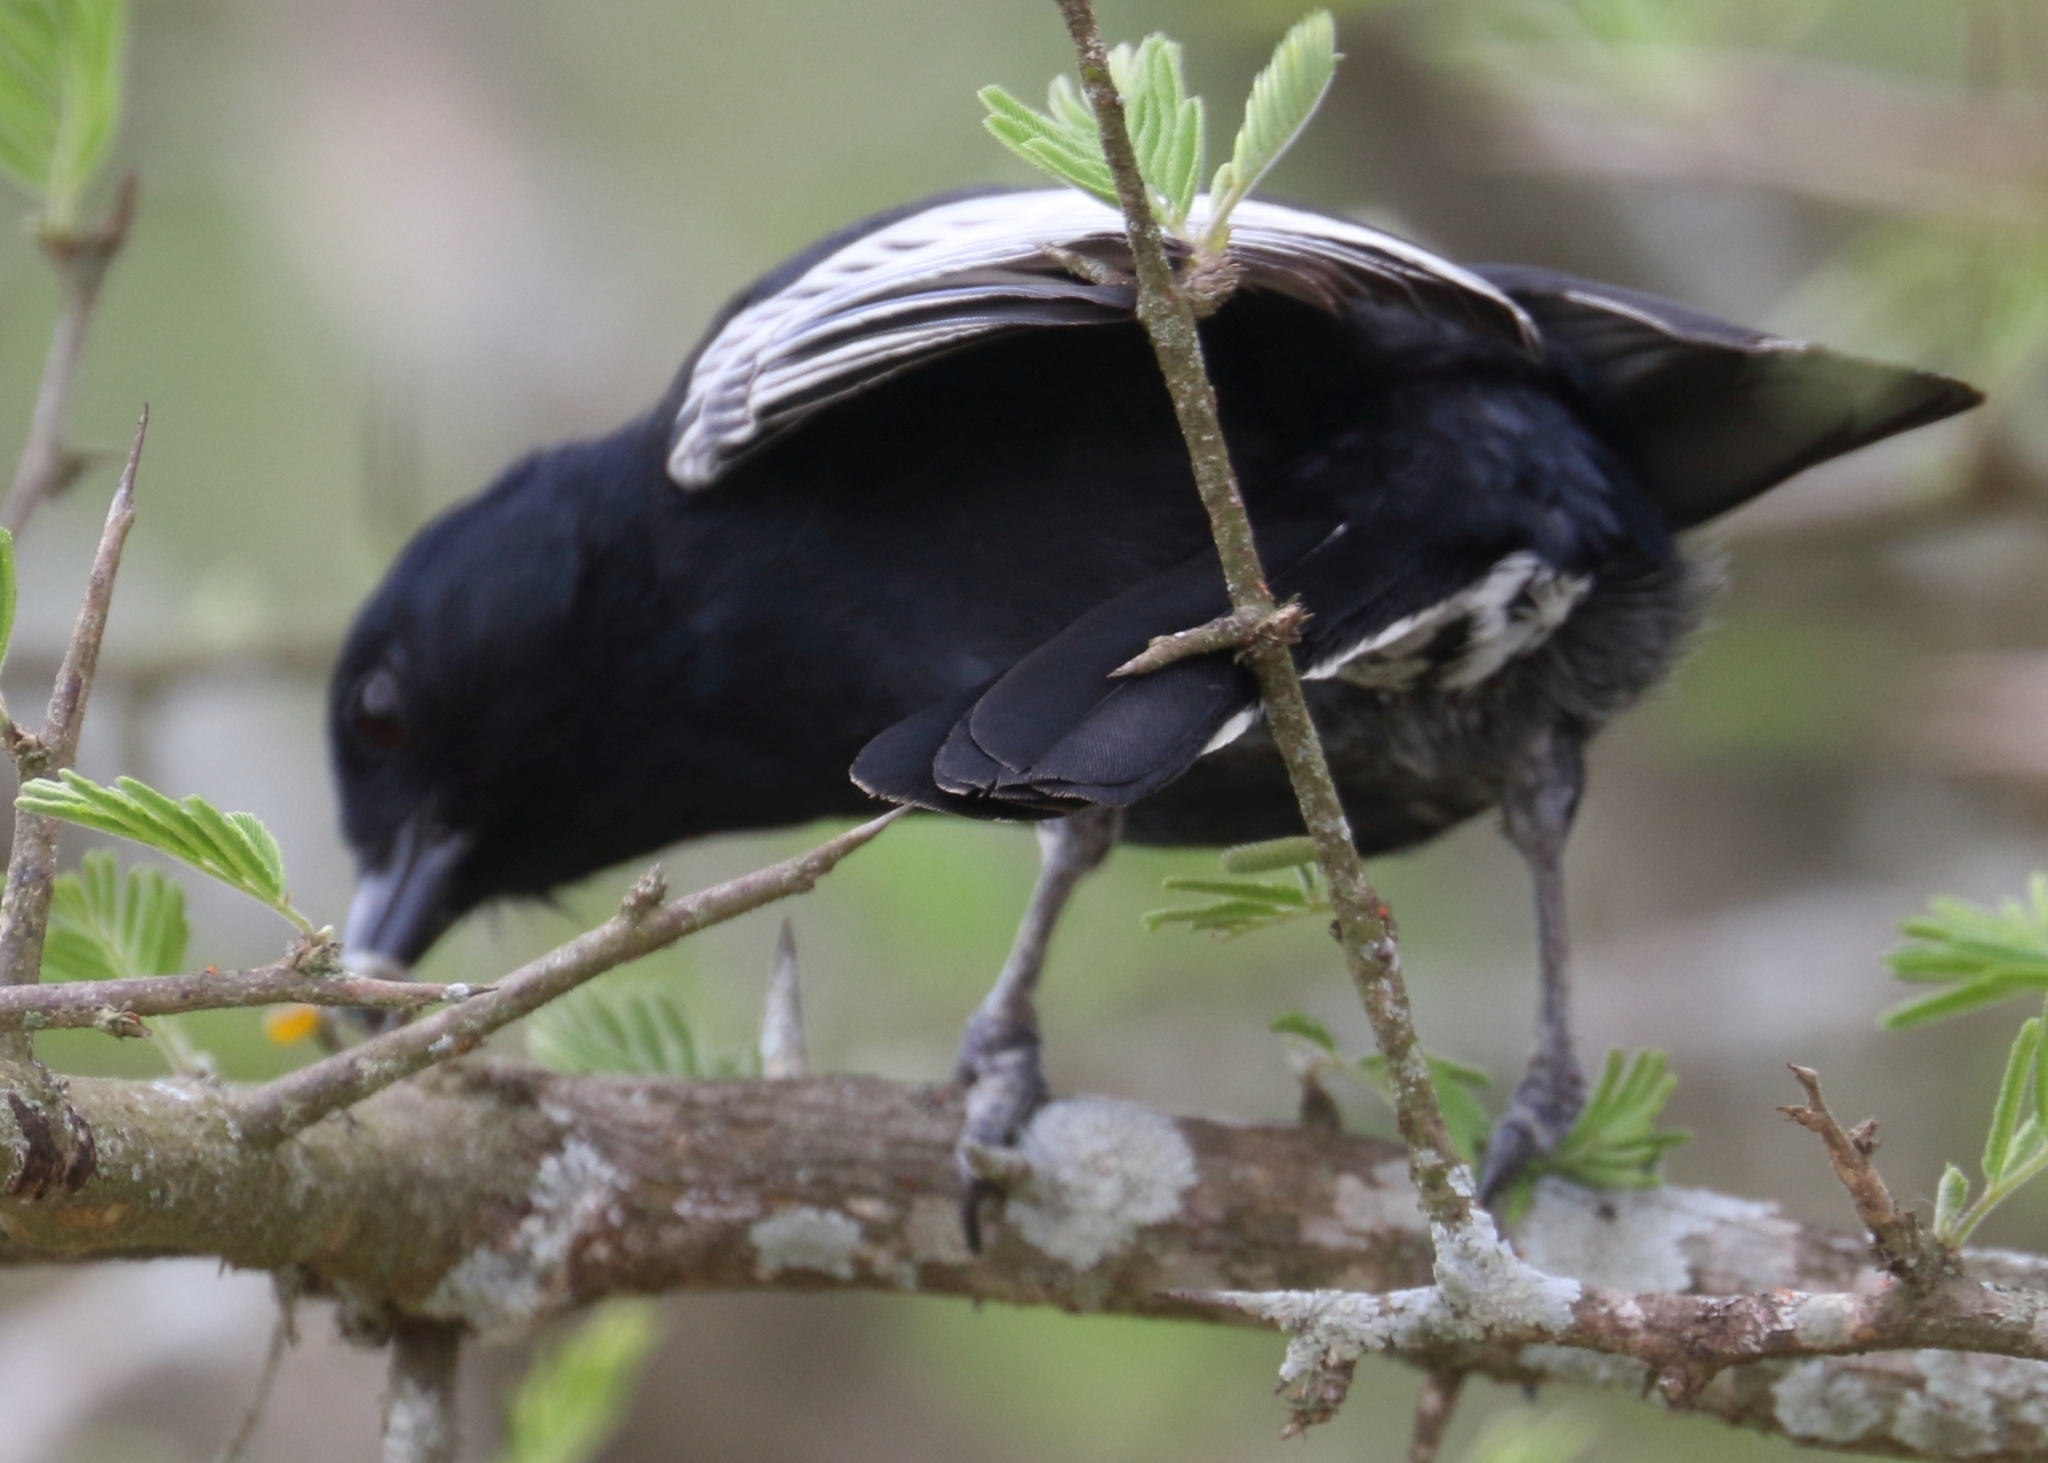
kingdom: Animalia
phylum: Chordata
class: Aves
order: Passeriformes
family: Paridae
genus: Parus
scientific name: Parus niger
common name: Southern black tit
